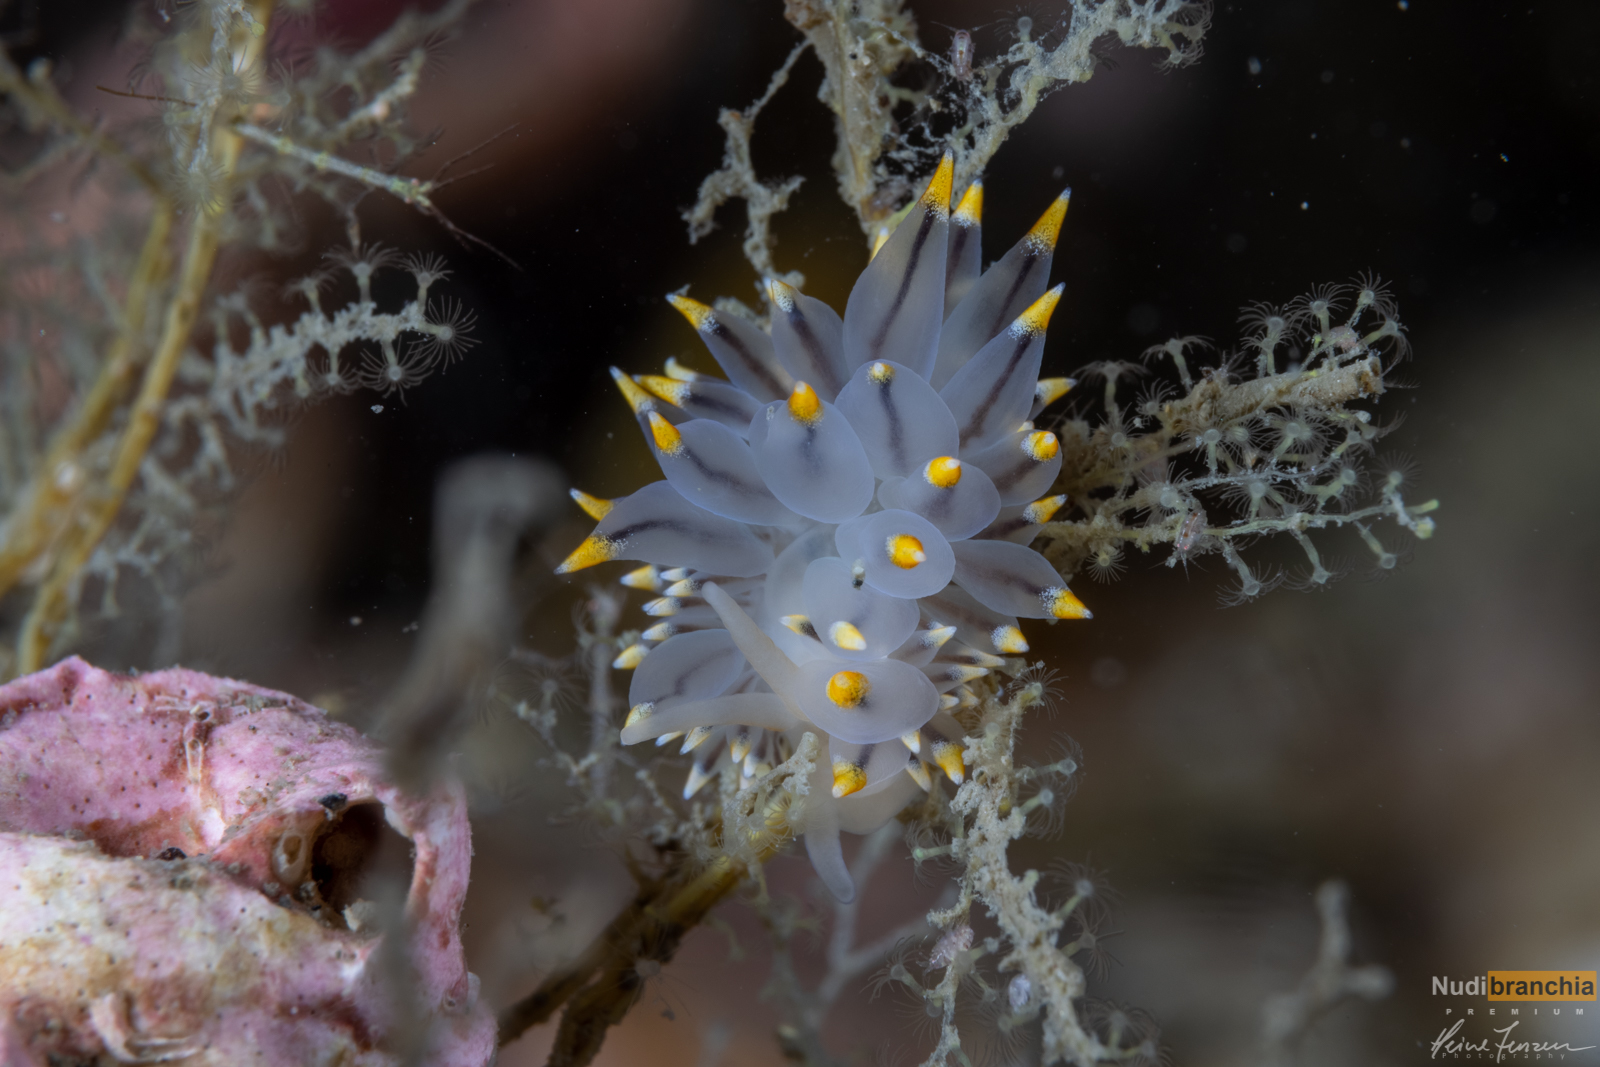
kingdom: Animalia
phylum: Mollusca
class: Gastropoda
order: Nudibranchia
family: Eubranchidae
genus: Eubranchus
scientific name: Eubranchus tricolor
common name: Painted balloon aeolis
